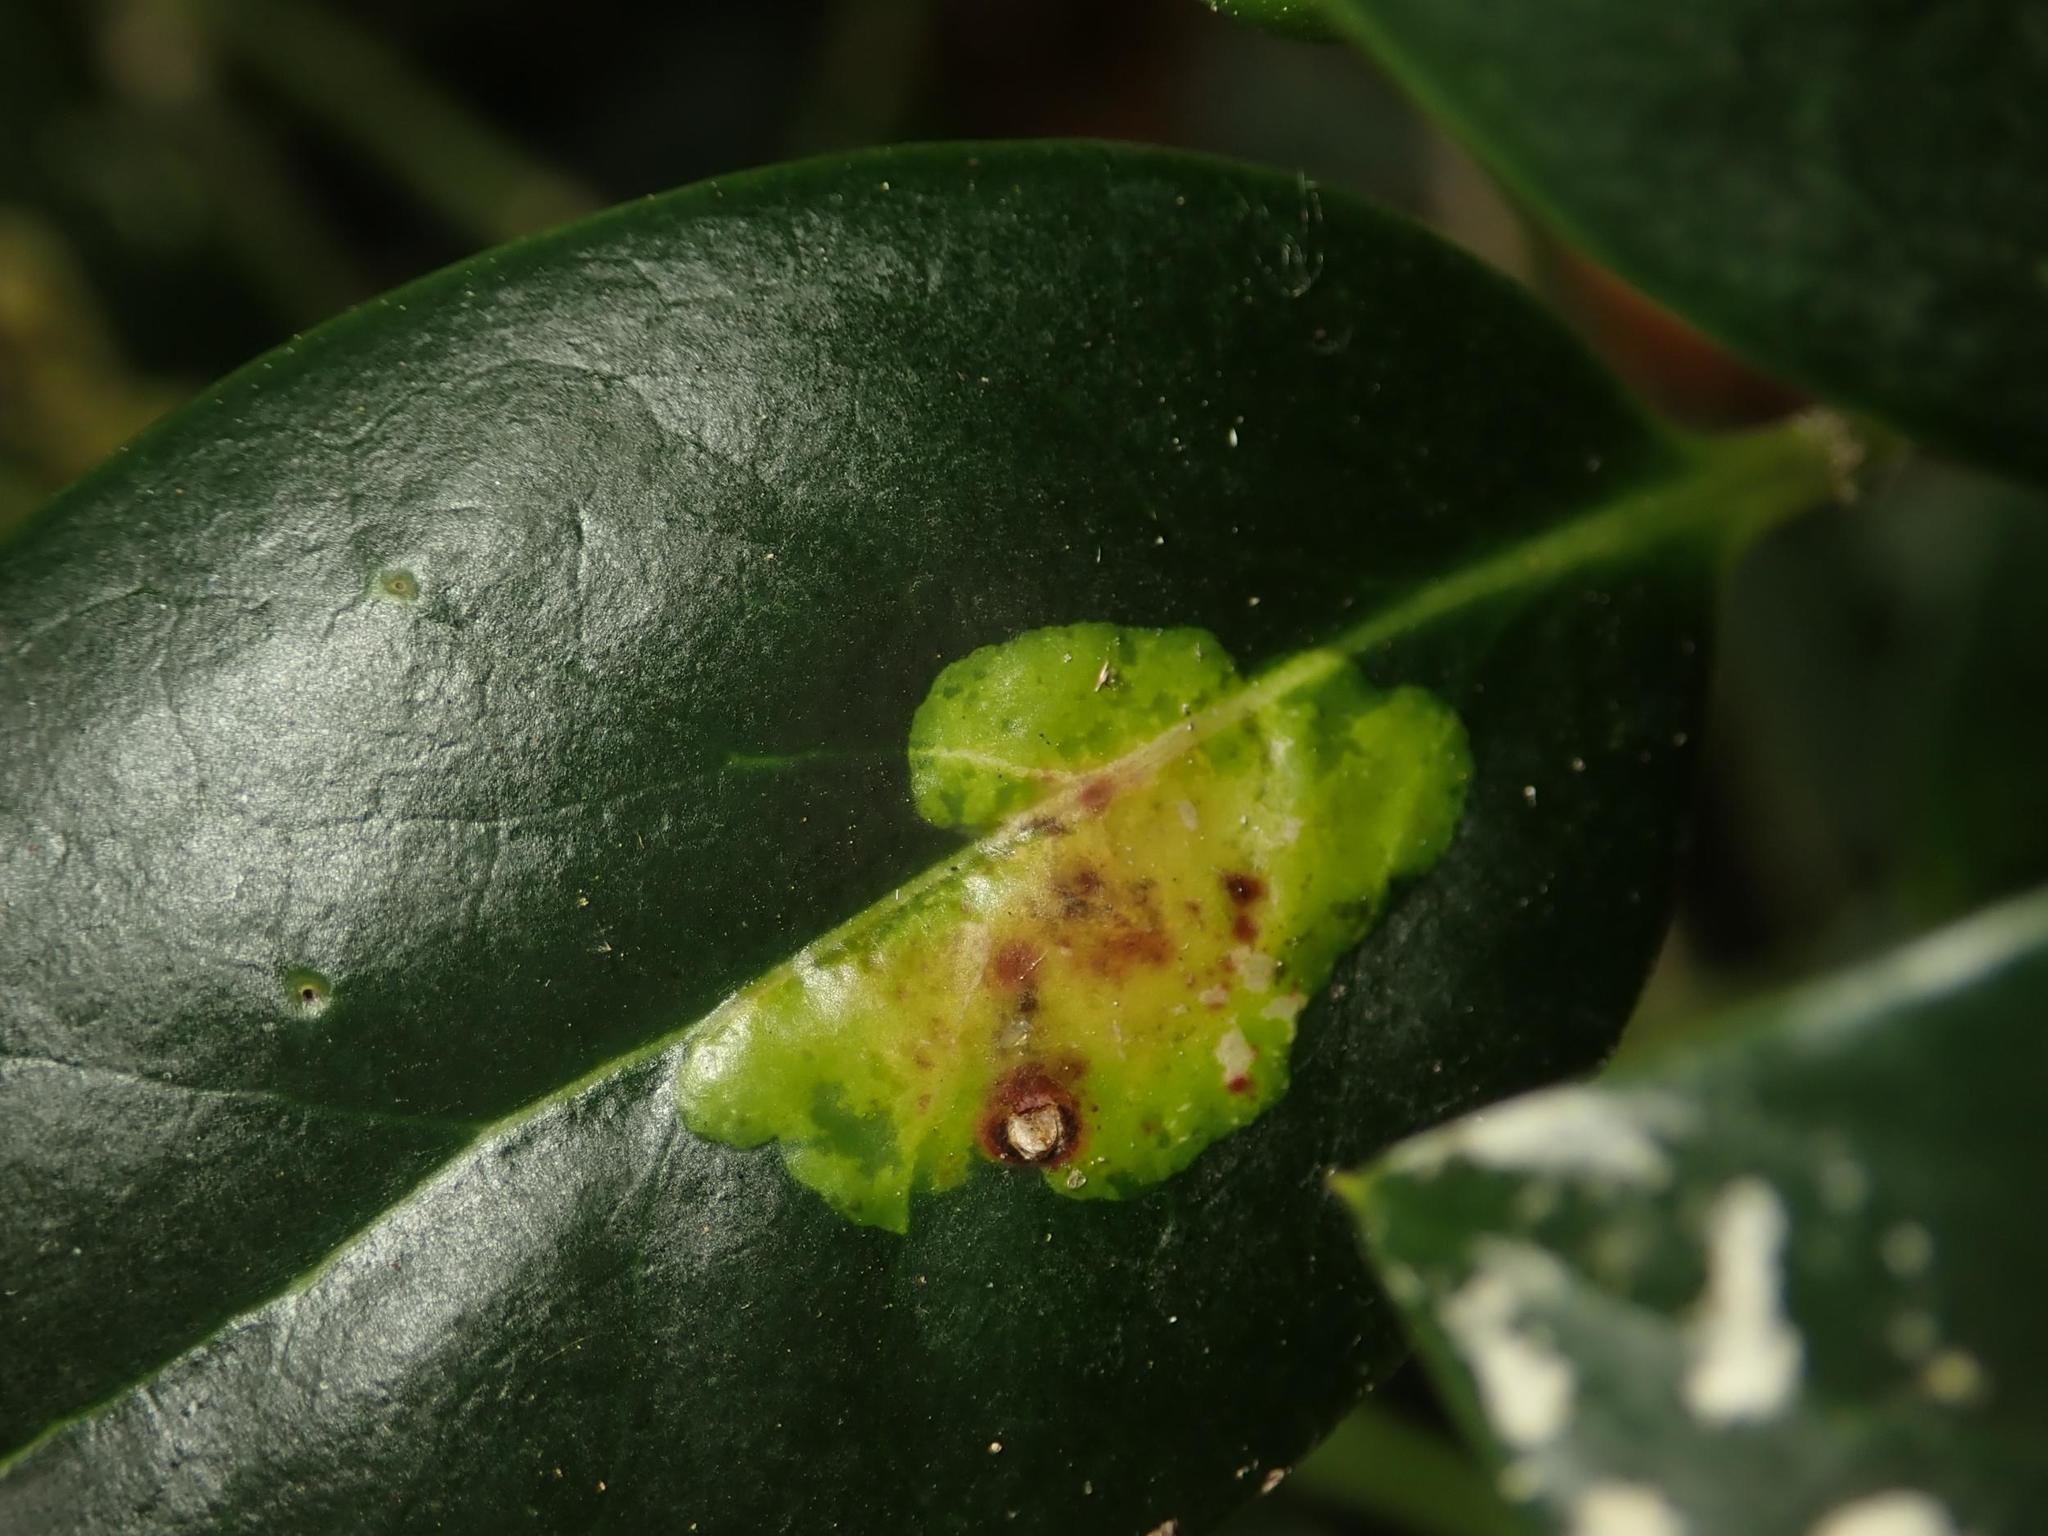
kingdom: Animalia
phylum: Arthropoda
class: Insecta
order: Diptera
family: Agromyzidae
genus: Phytomyza
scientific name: Phytomyza ilicis
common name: Holly leafminer
